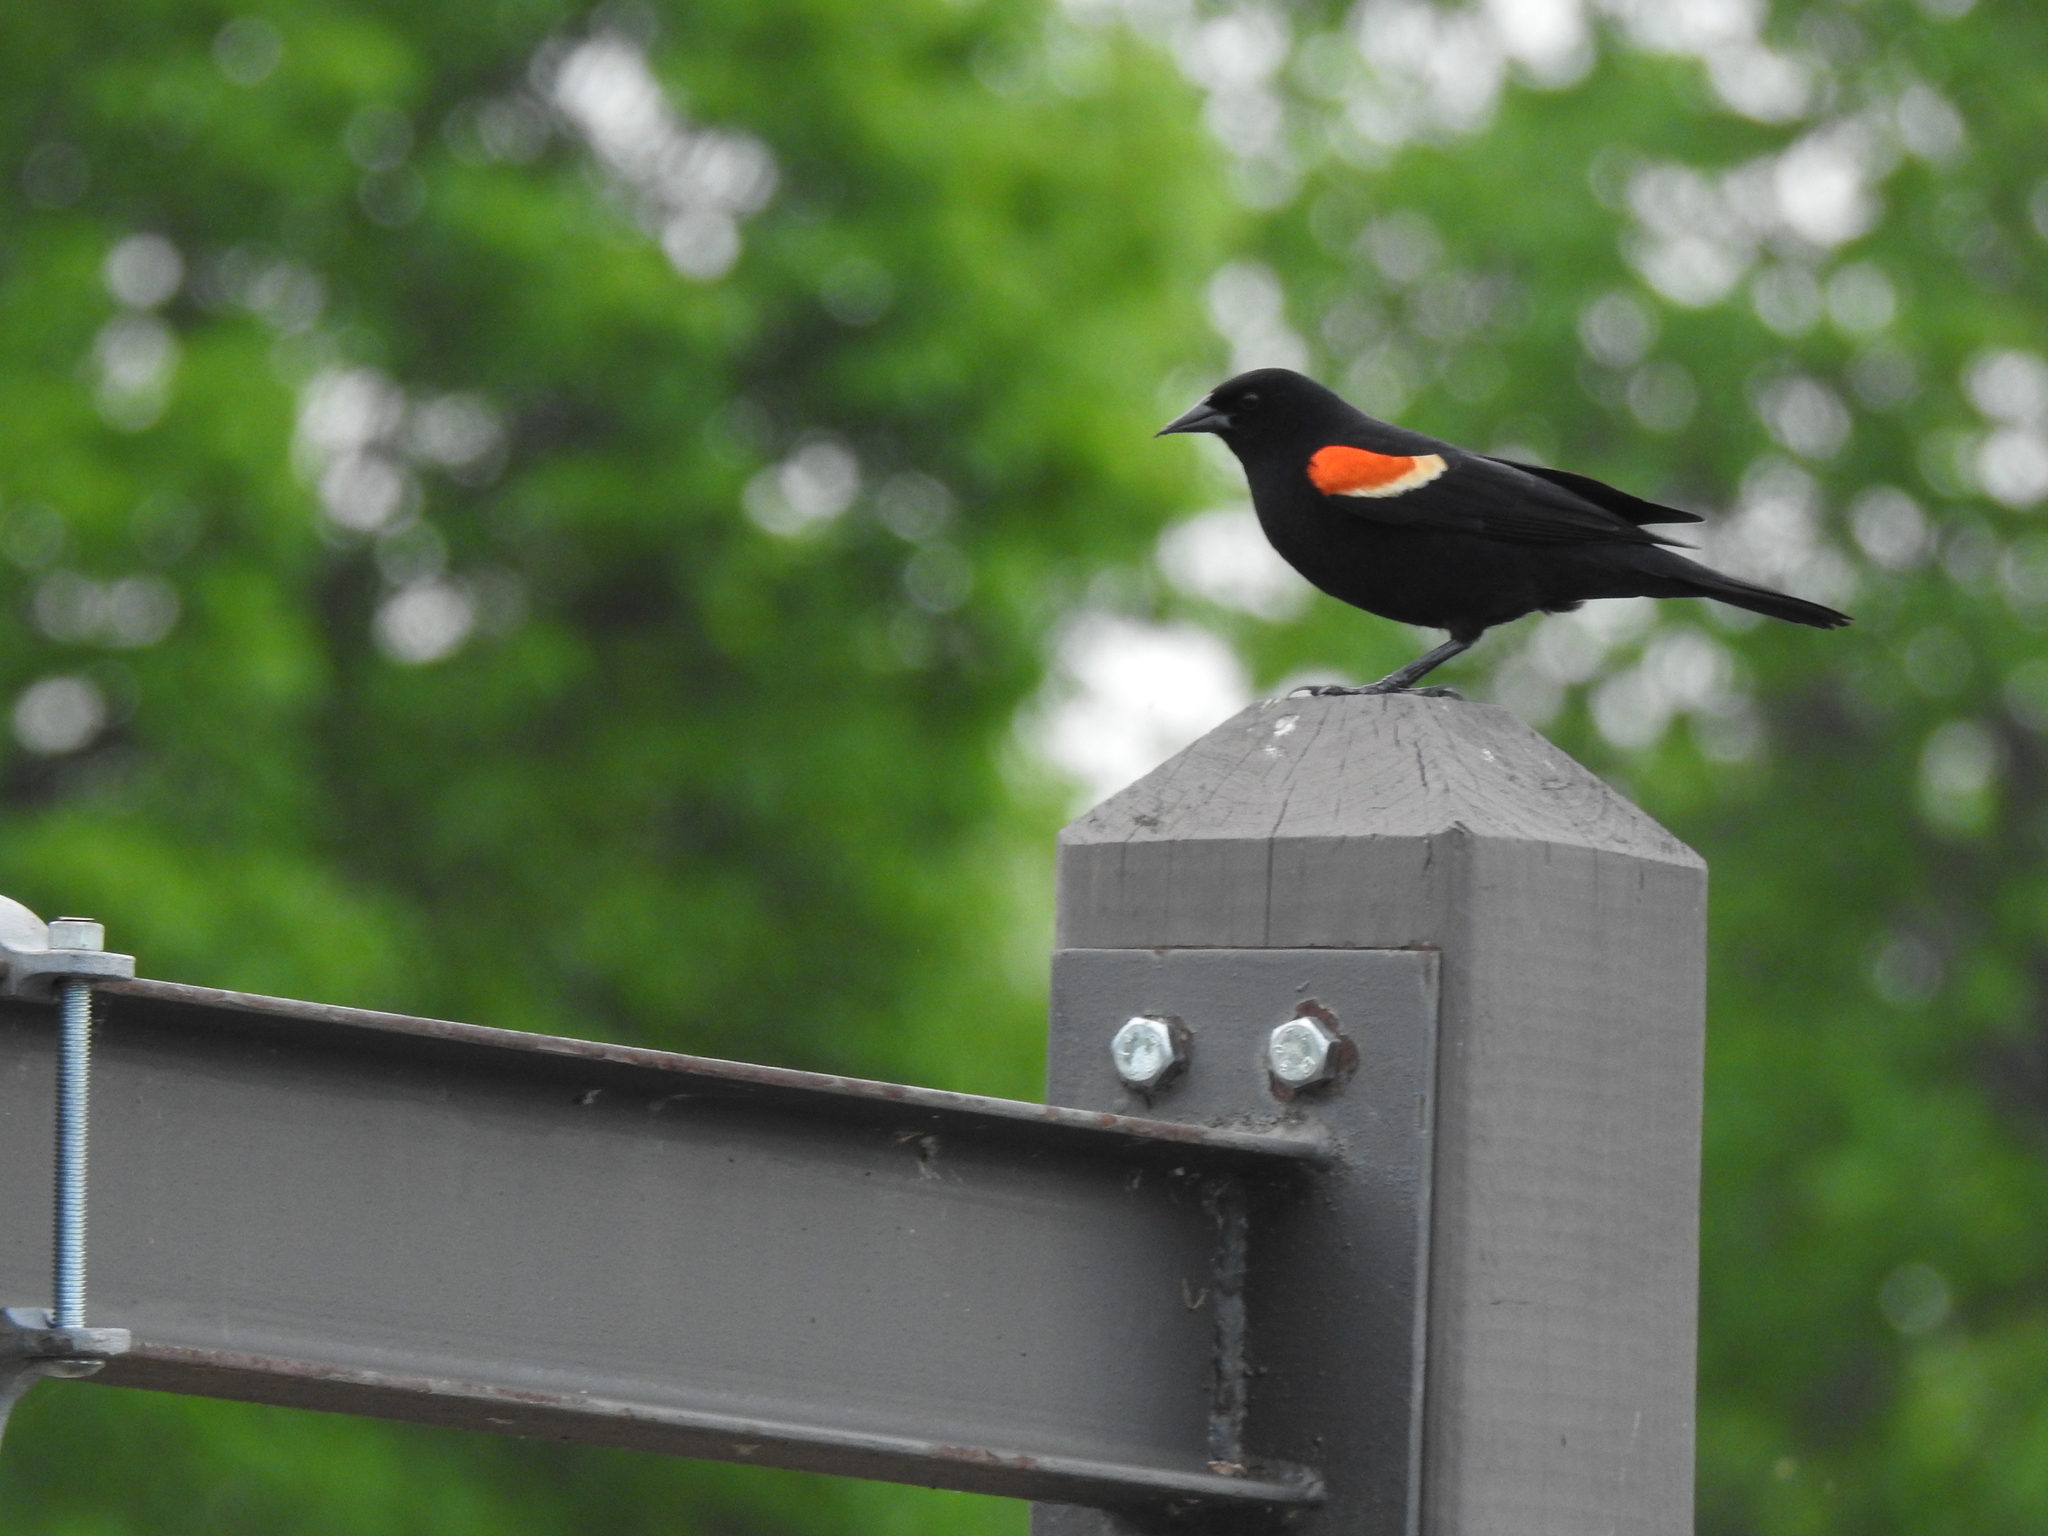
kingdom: Animalia
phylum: Chordata
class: Aves
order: Passeriformes
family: Icteridae
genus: Agelaius
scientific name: Agelaius phoeniceus
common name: Red-winged blackbird
